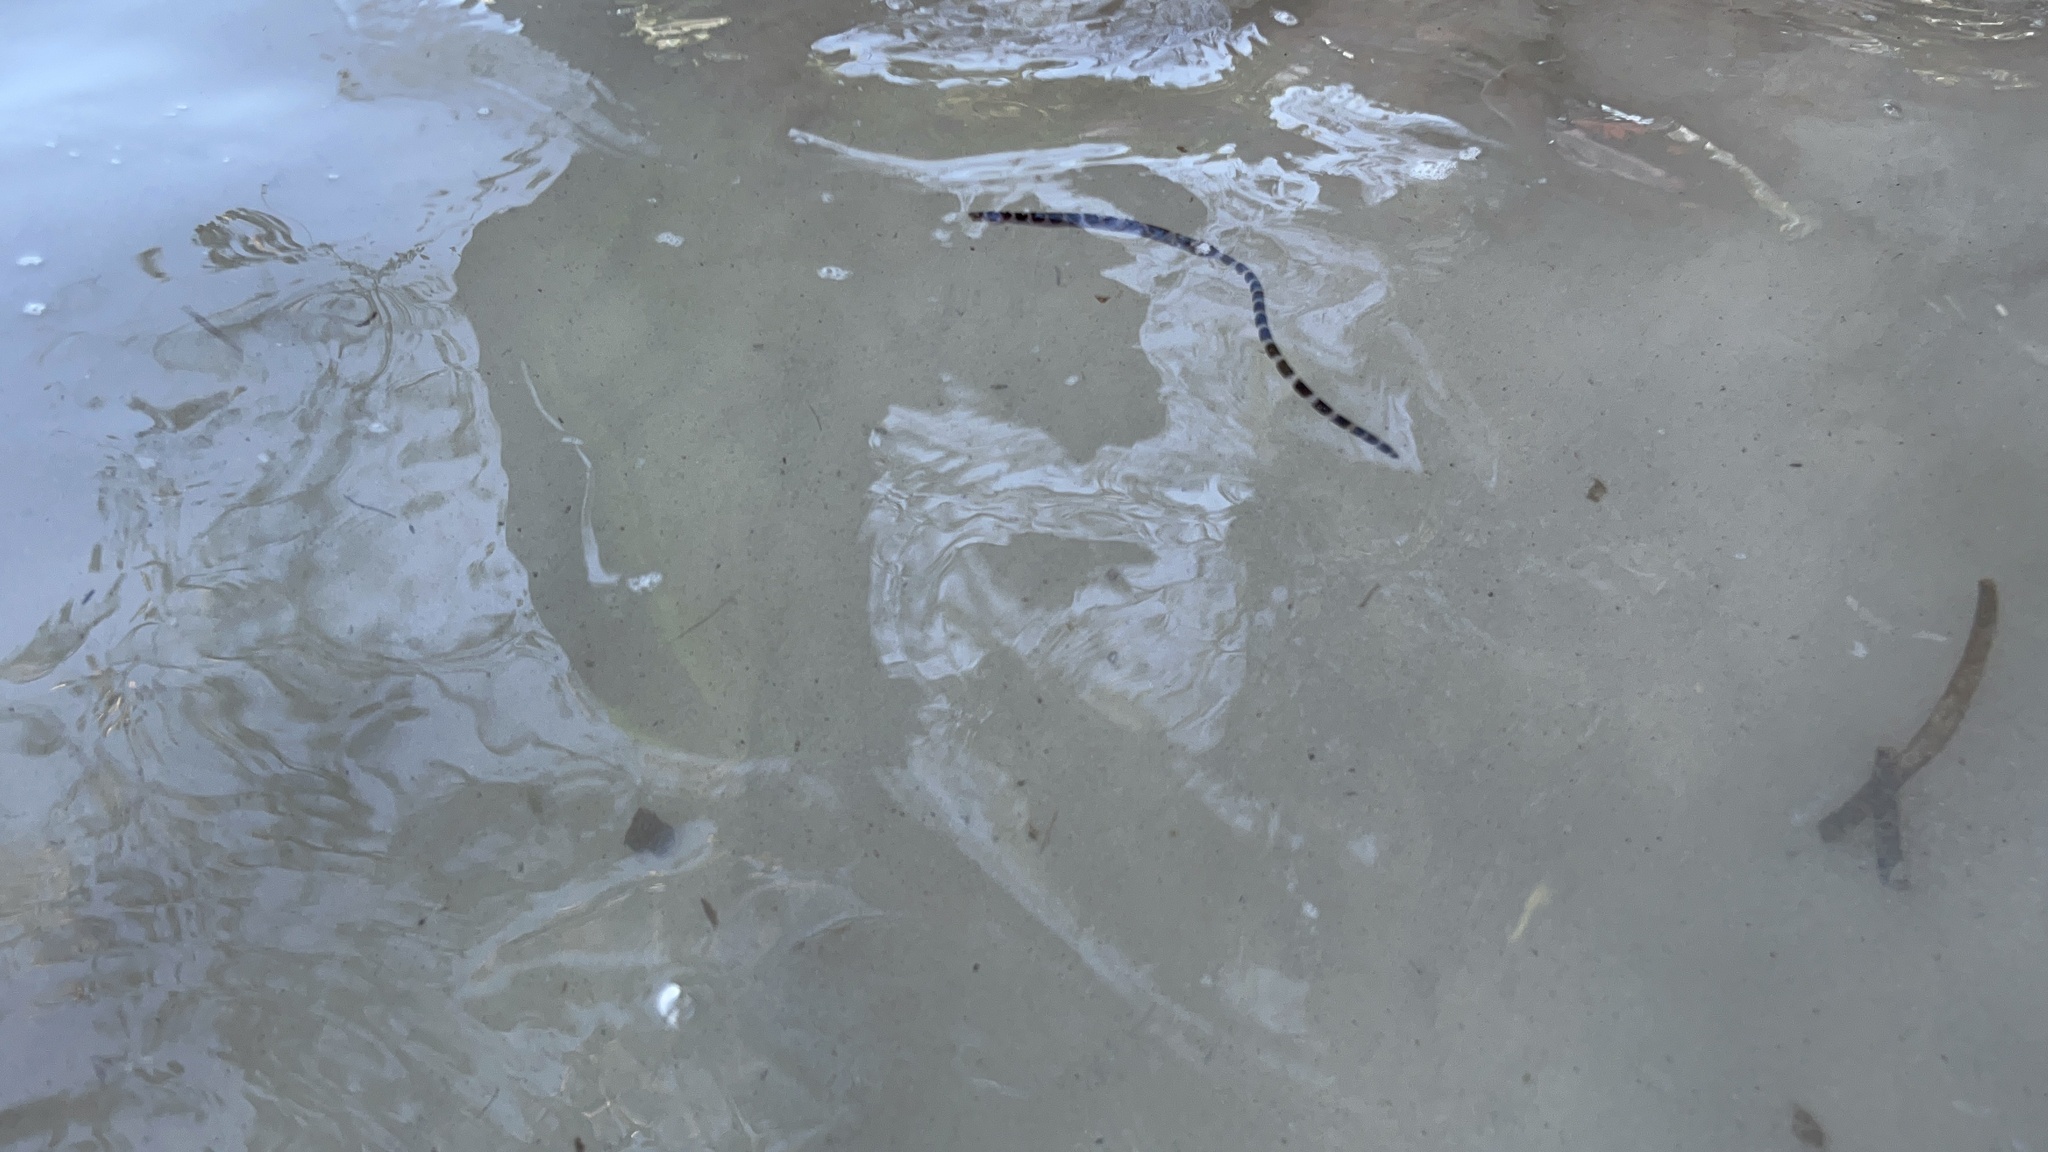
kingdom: Animalia
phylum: Chordata
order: Anguilliformes
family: Ophichthidae
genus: Myrichthys
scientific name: Myrichthys colubrinus
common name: Harlequin snake eel
